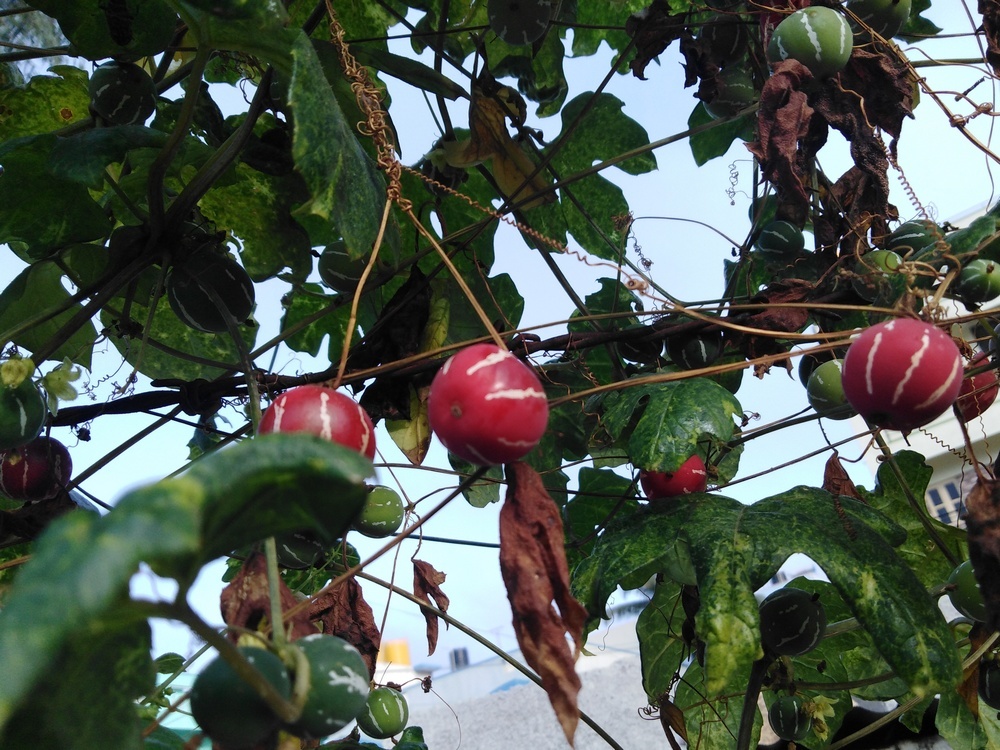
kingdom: Plantae
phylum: Tracheophyta
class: Magnoliopsida
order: Cucurbitales
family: Cucurbitaceae
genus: Diplocyclos
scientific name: Diplocyclos palmatus
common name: Striped-cucumber
